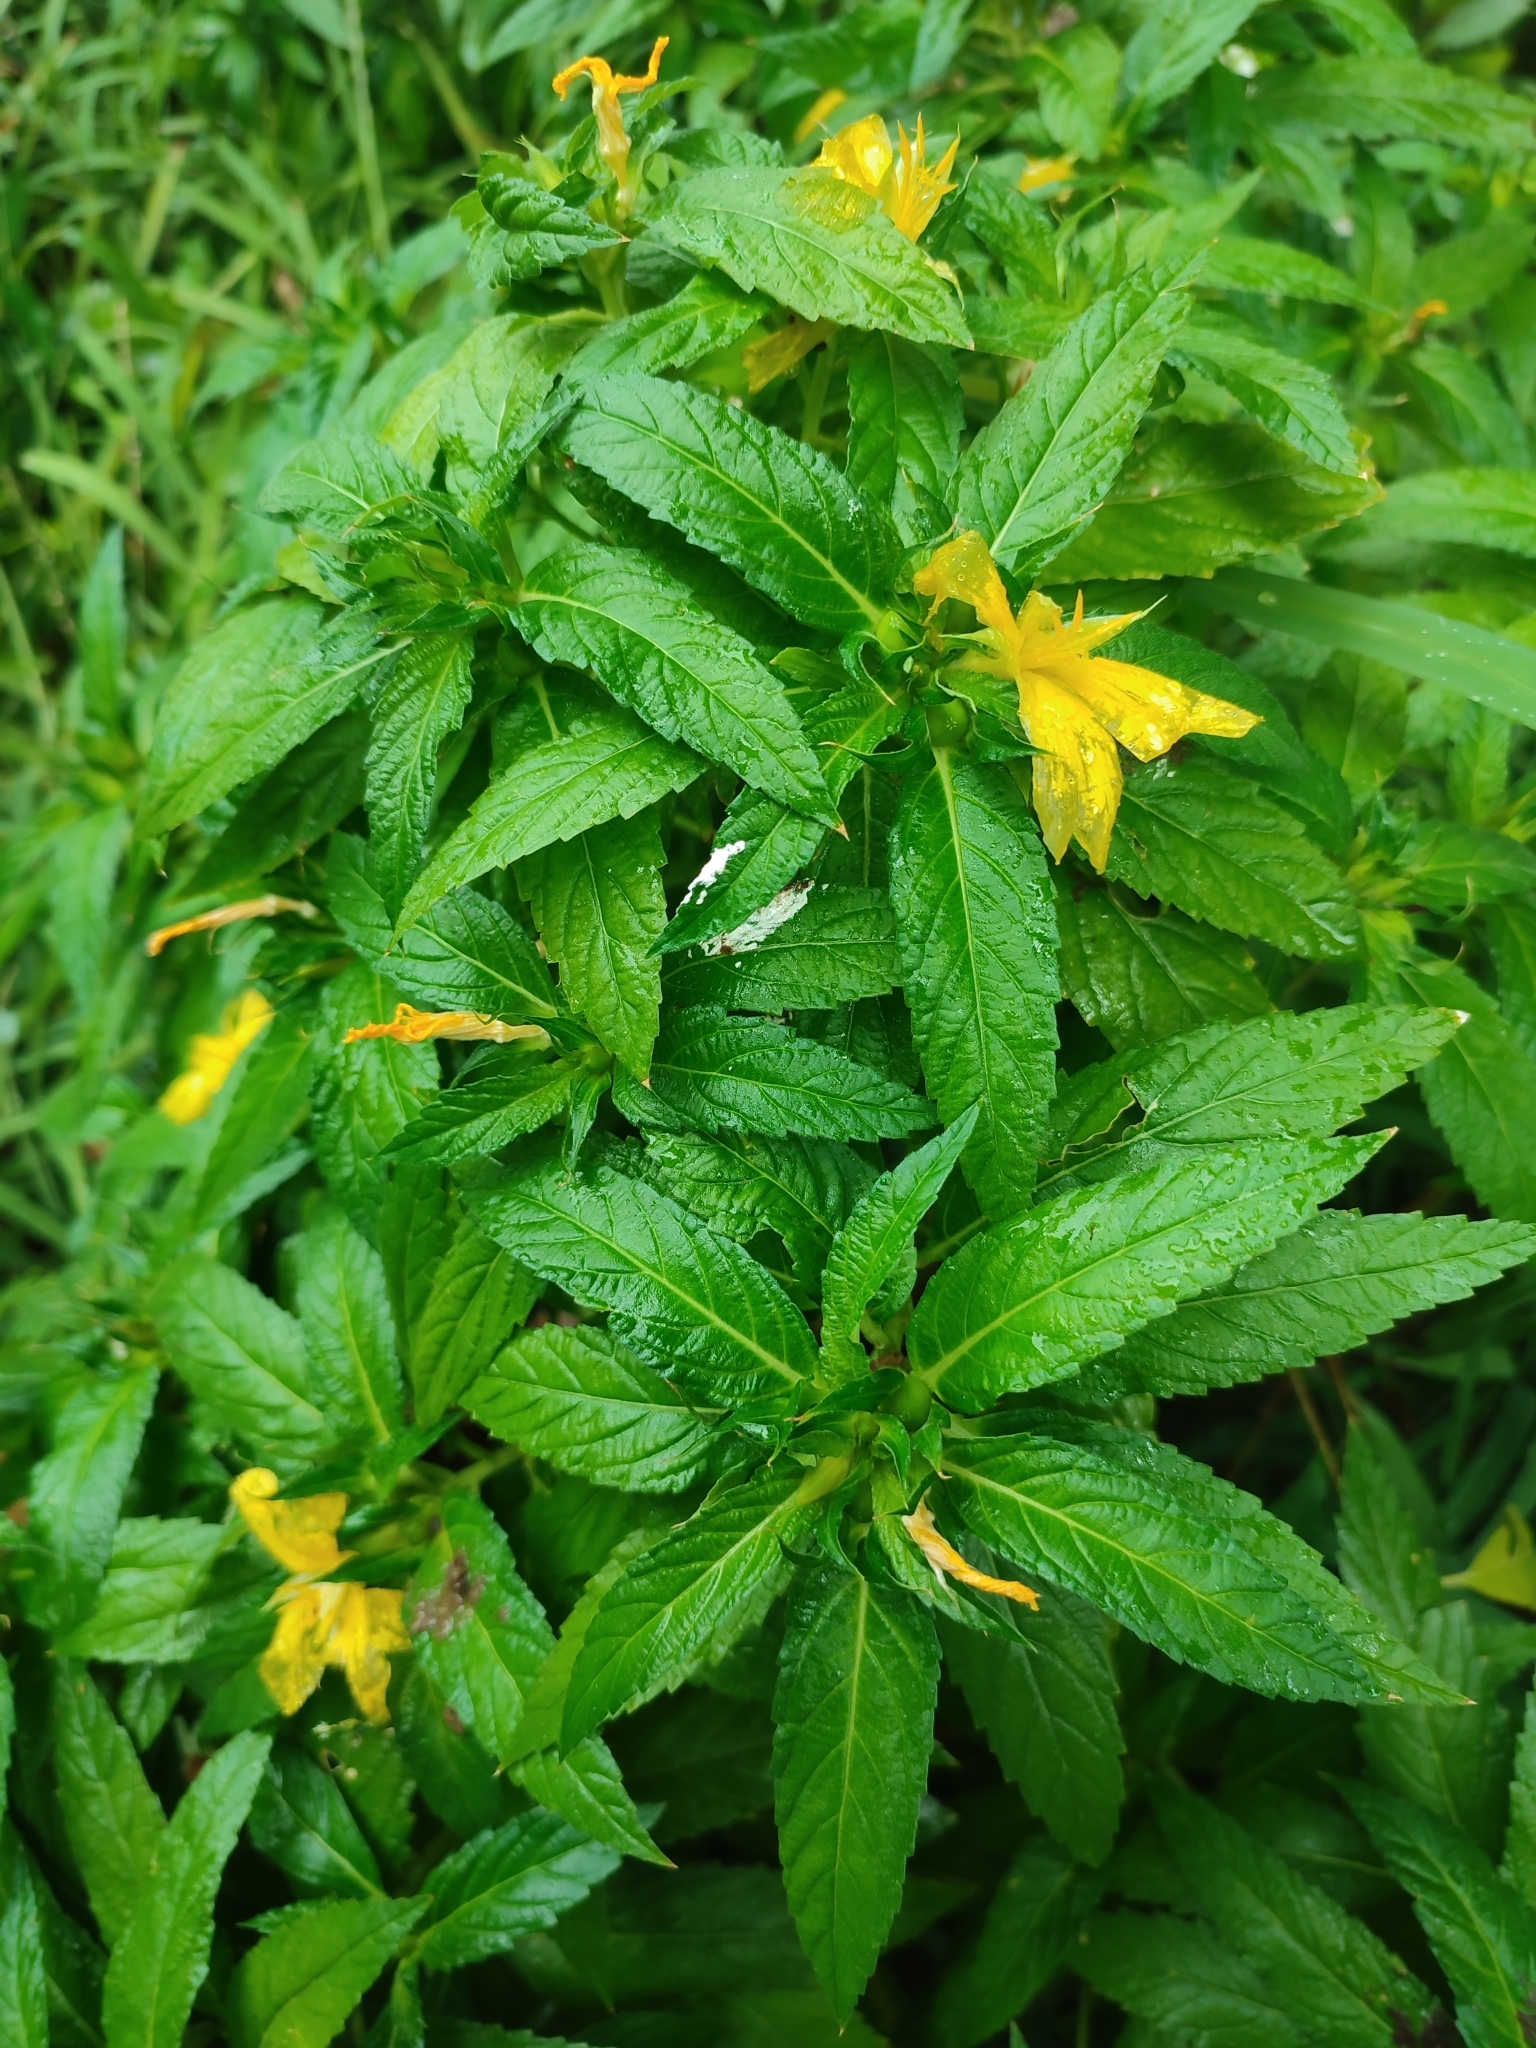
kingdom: Plantae
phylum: Tracheophyta
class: Magnoliopsida
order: Malpighiales
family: Turneraceae
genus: Turnera
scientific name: Turnera ulmifolia
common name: Ramgoat dashalong
